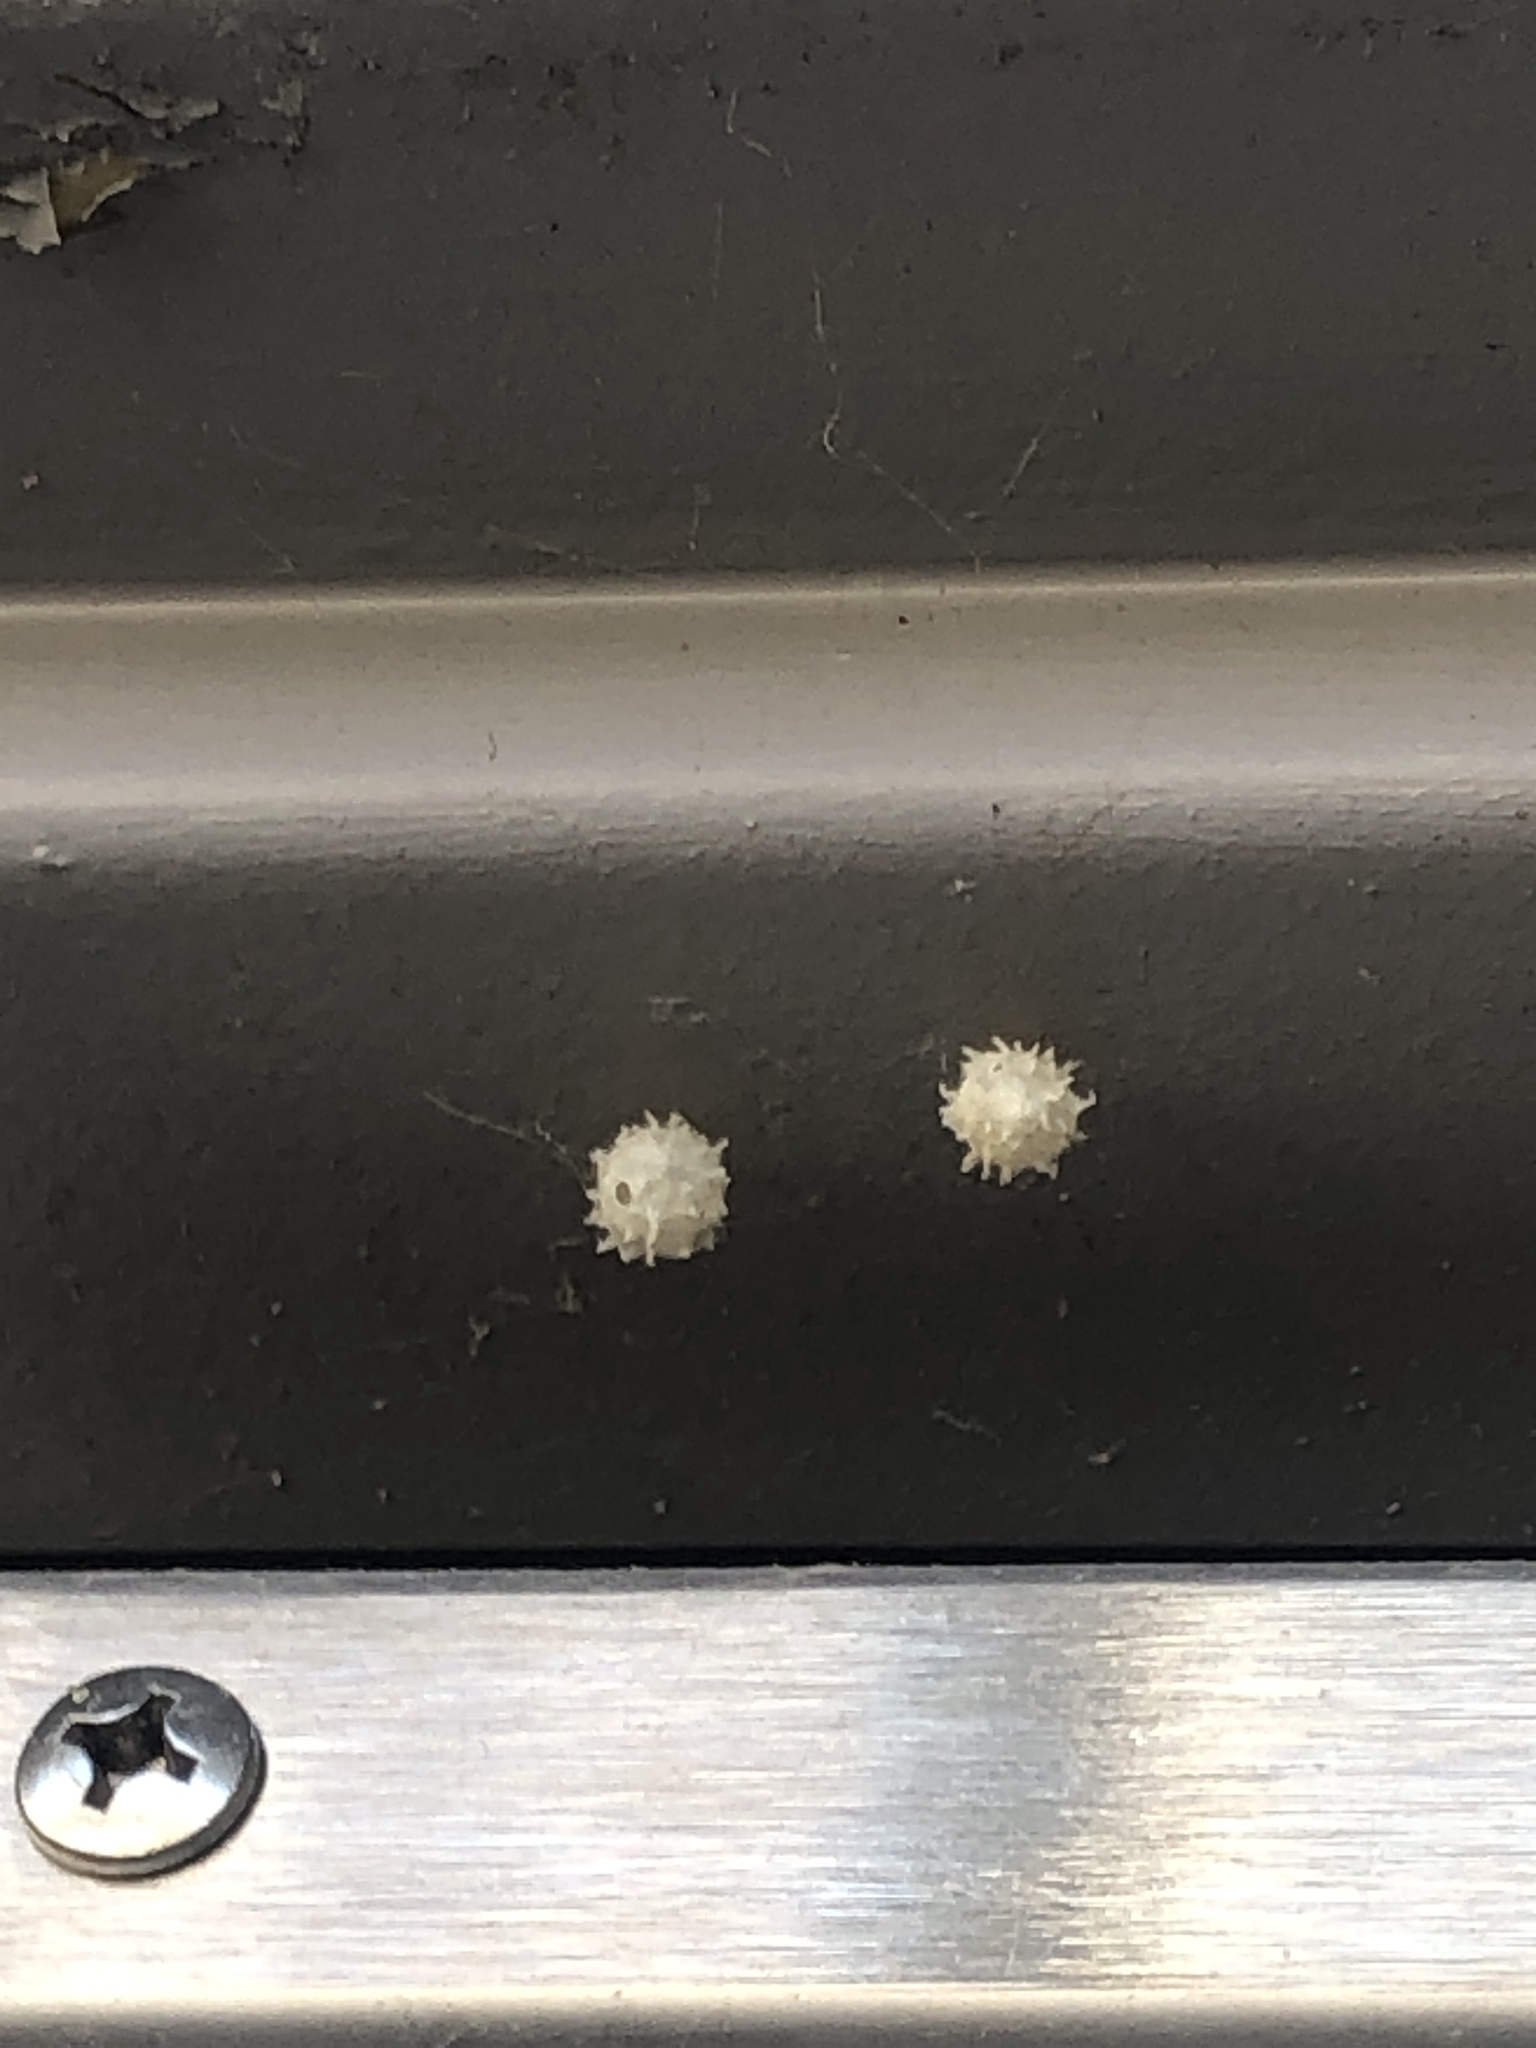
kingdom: Animalia
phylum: Arthropoda
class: Arachnida
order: Araneae
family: Theridiidae
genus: Latrodectus
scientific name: Latrodectus geometricus
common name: Brown widow spider
